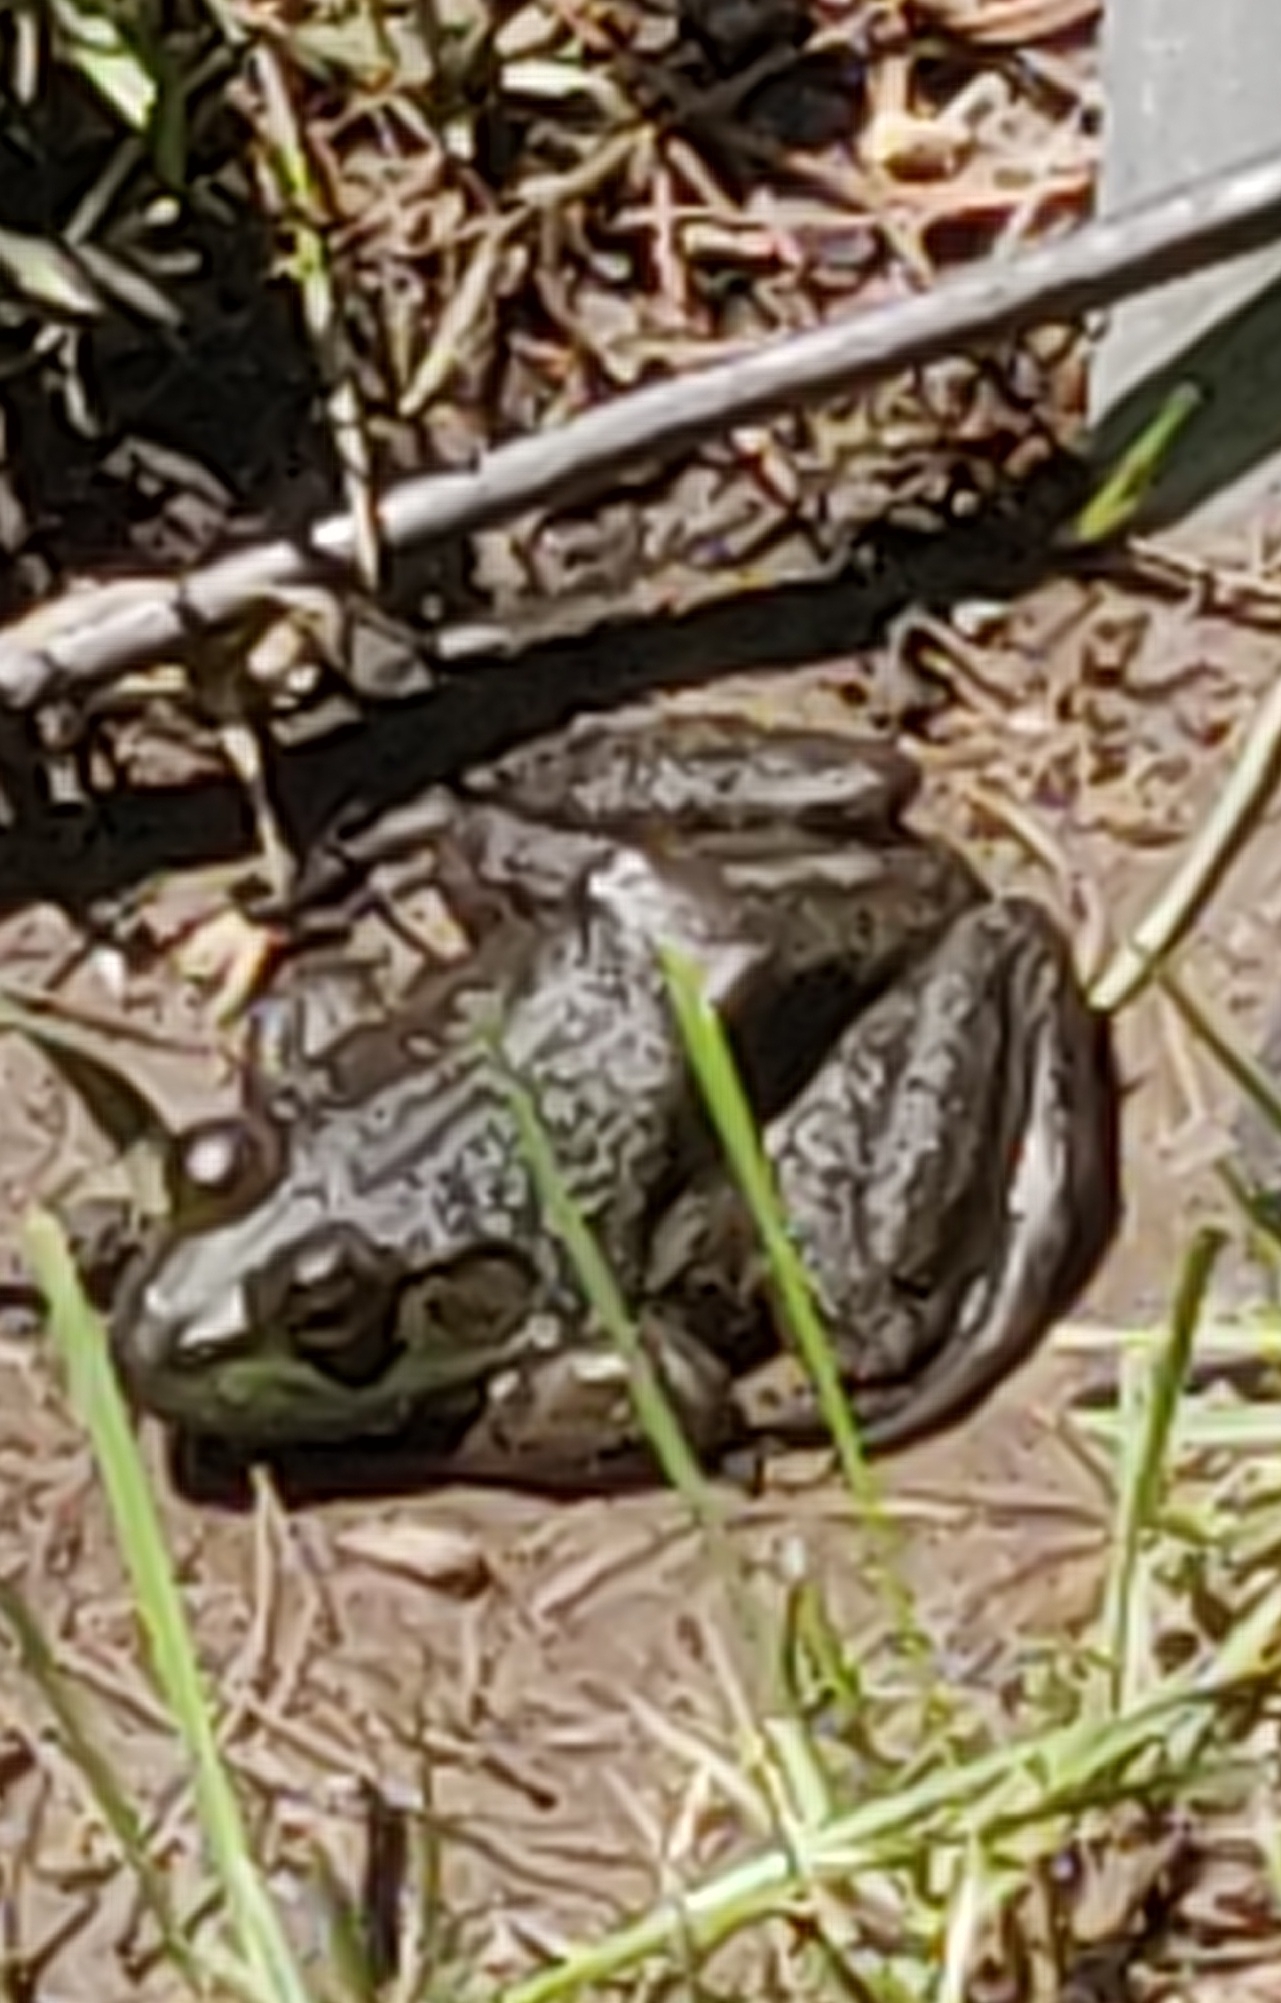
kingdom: Animalia
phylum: Chordata
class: Amphibia
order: Anura
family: Ranidae
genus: Lithobates
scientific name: Lithobates catesbeianus
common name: American bullfrog
